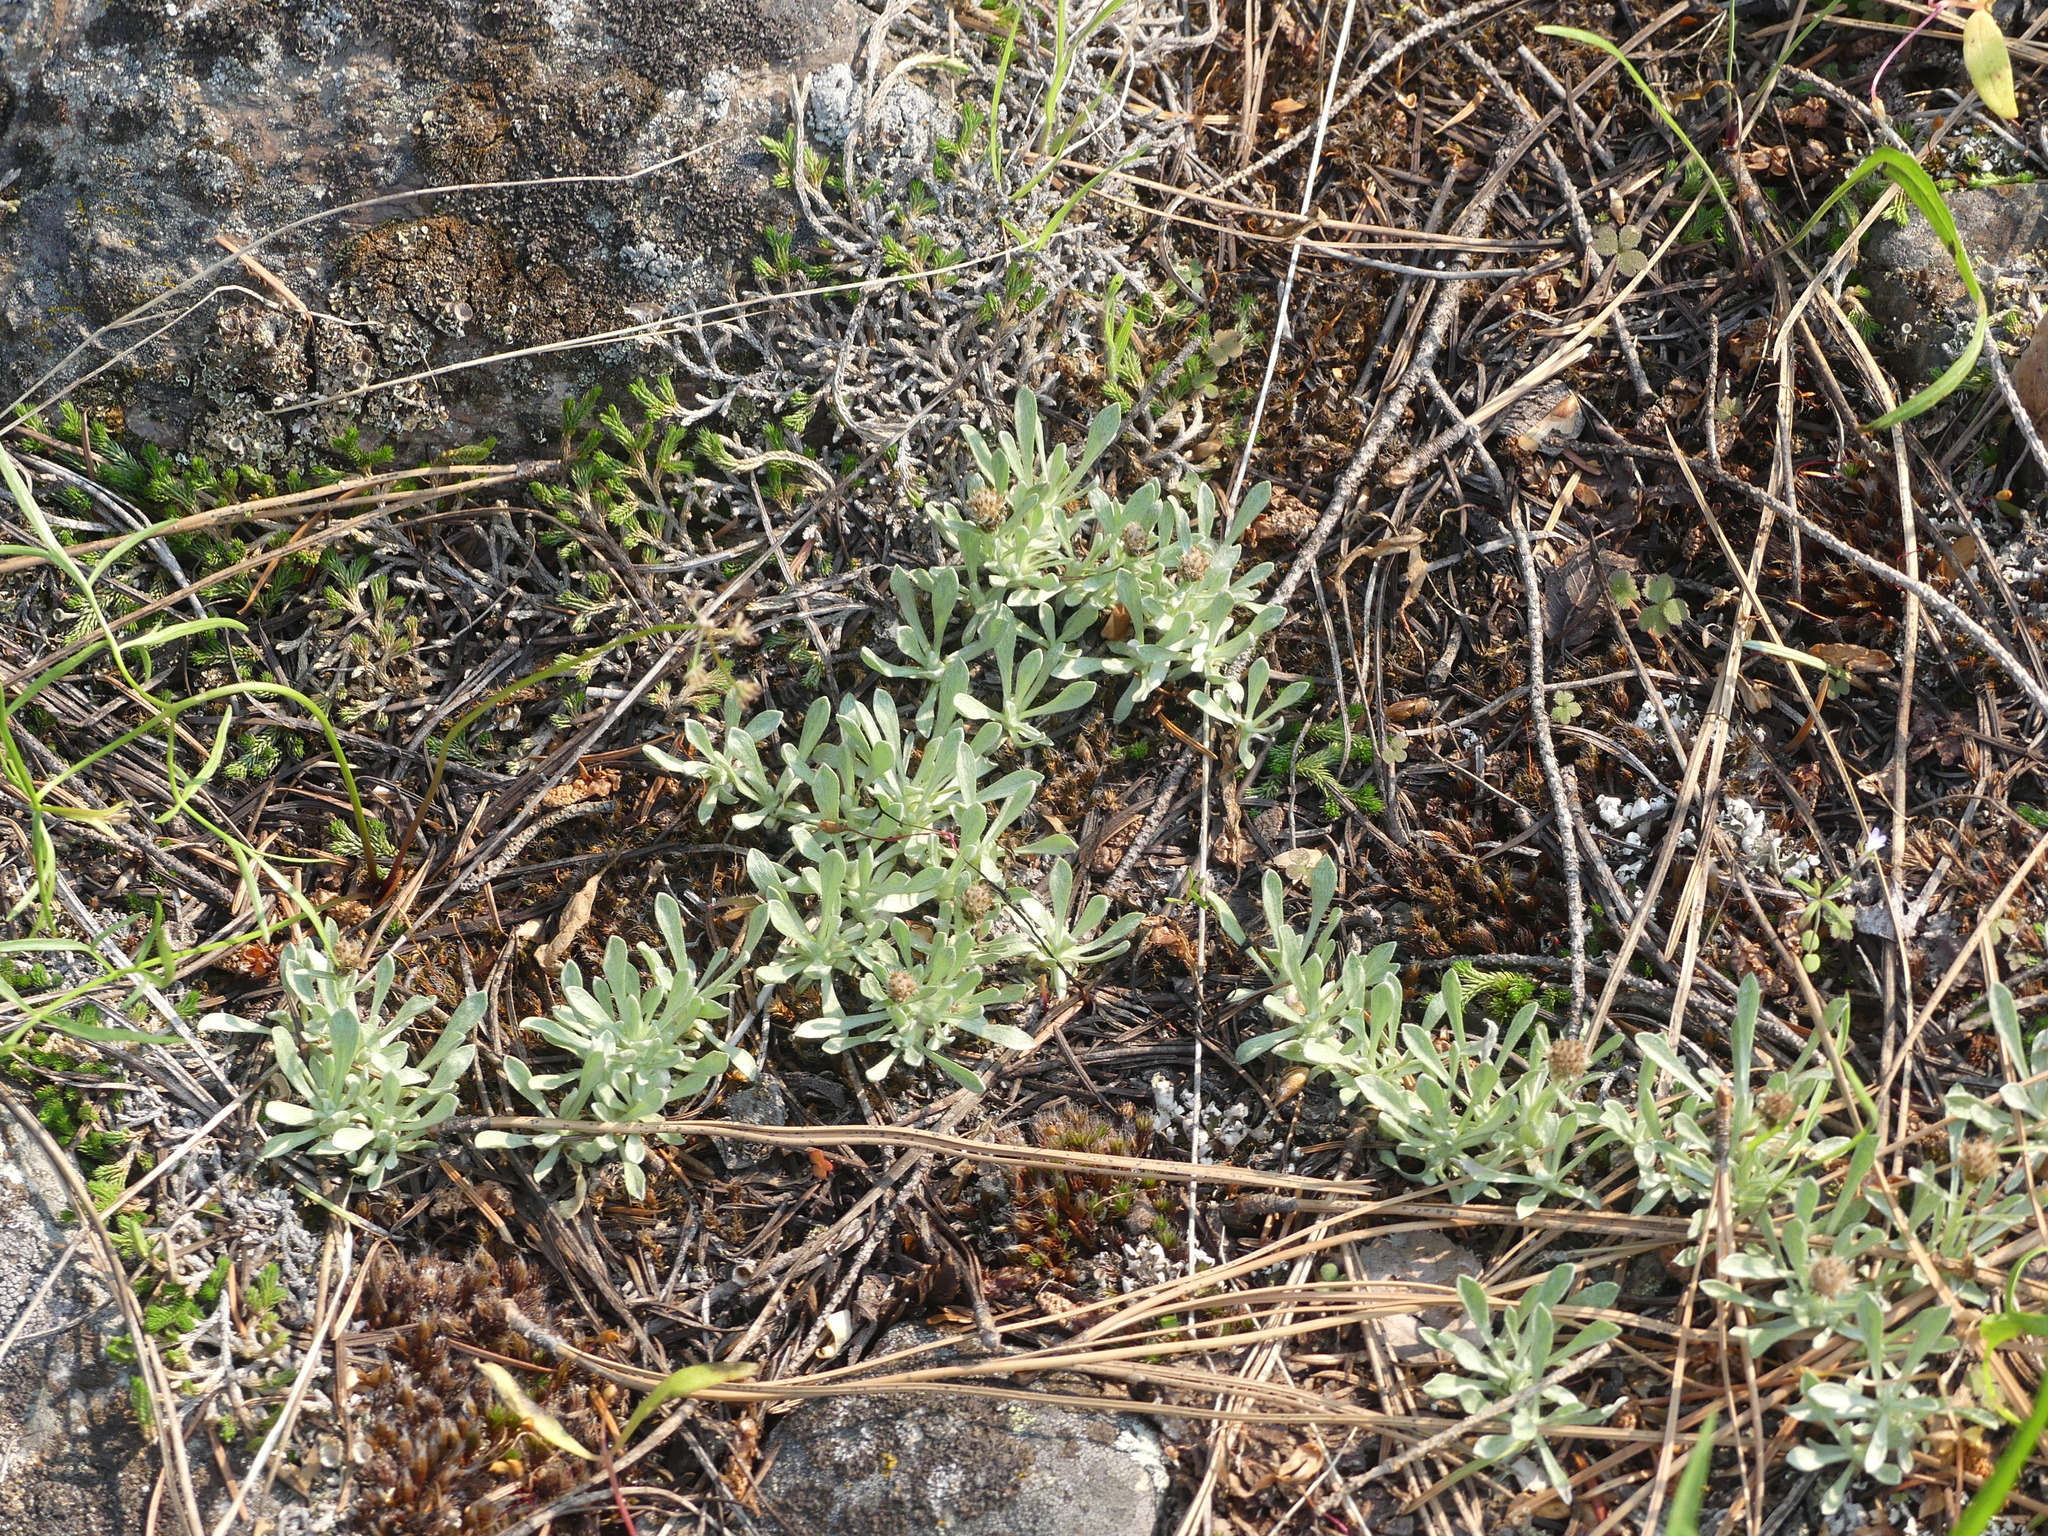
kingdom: Plantae
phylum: Tracheophyta
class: Magnoliopsida
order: Asterales
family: Asteraceae
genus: Antennaria
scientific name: Antennaria dimorpha
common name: Cushion pussytoes
